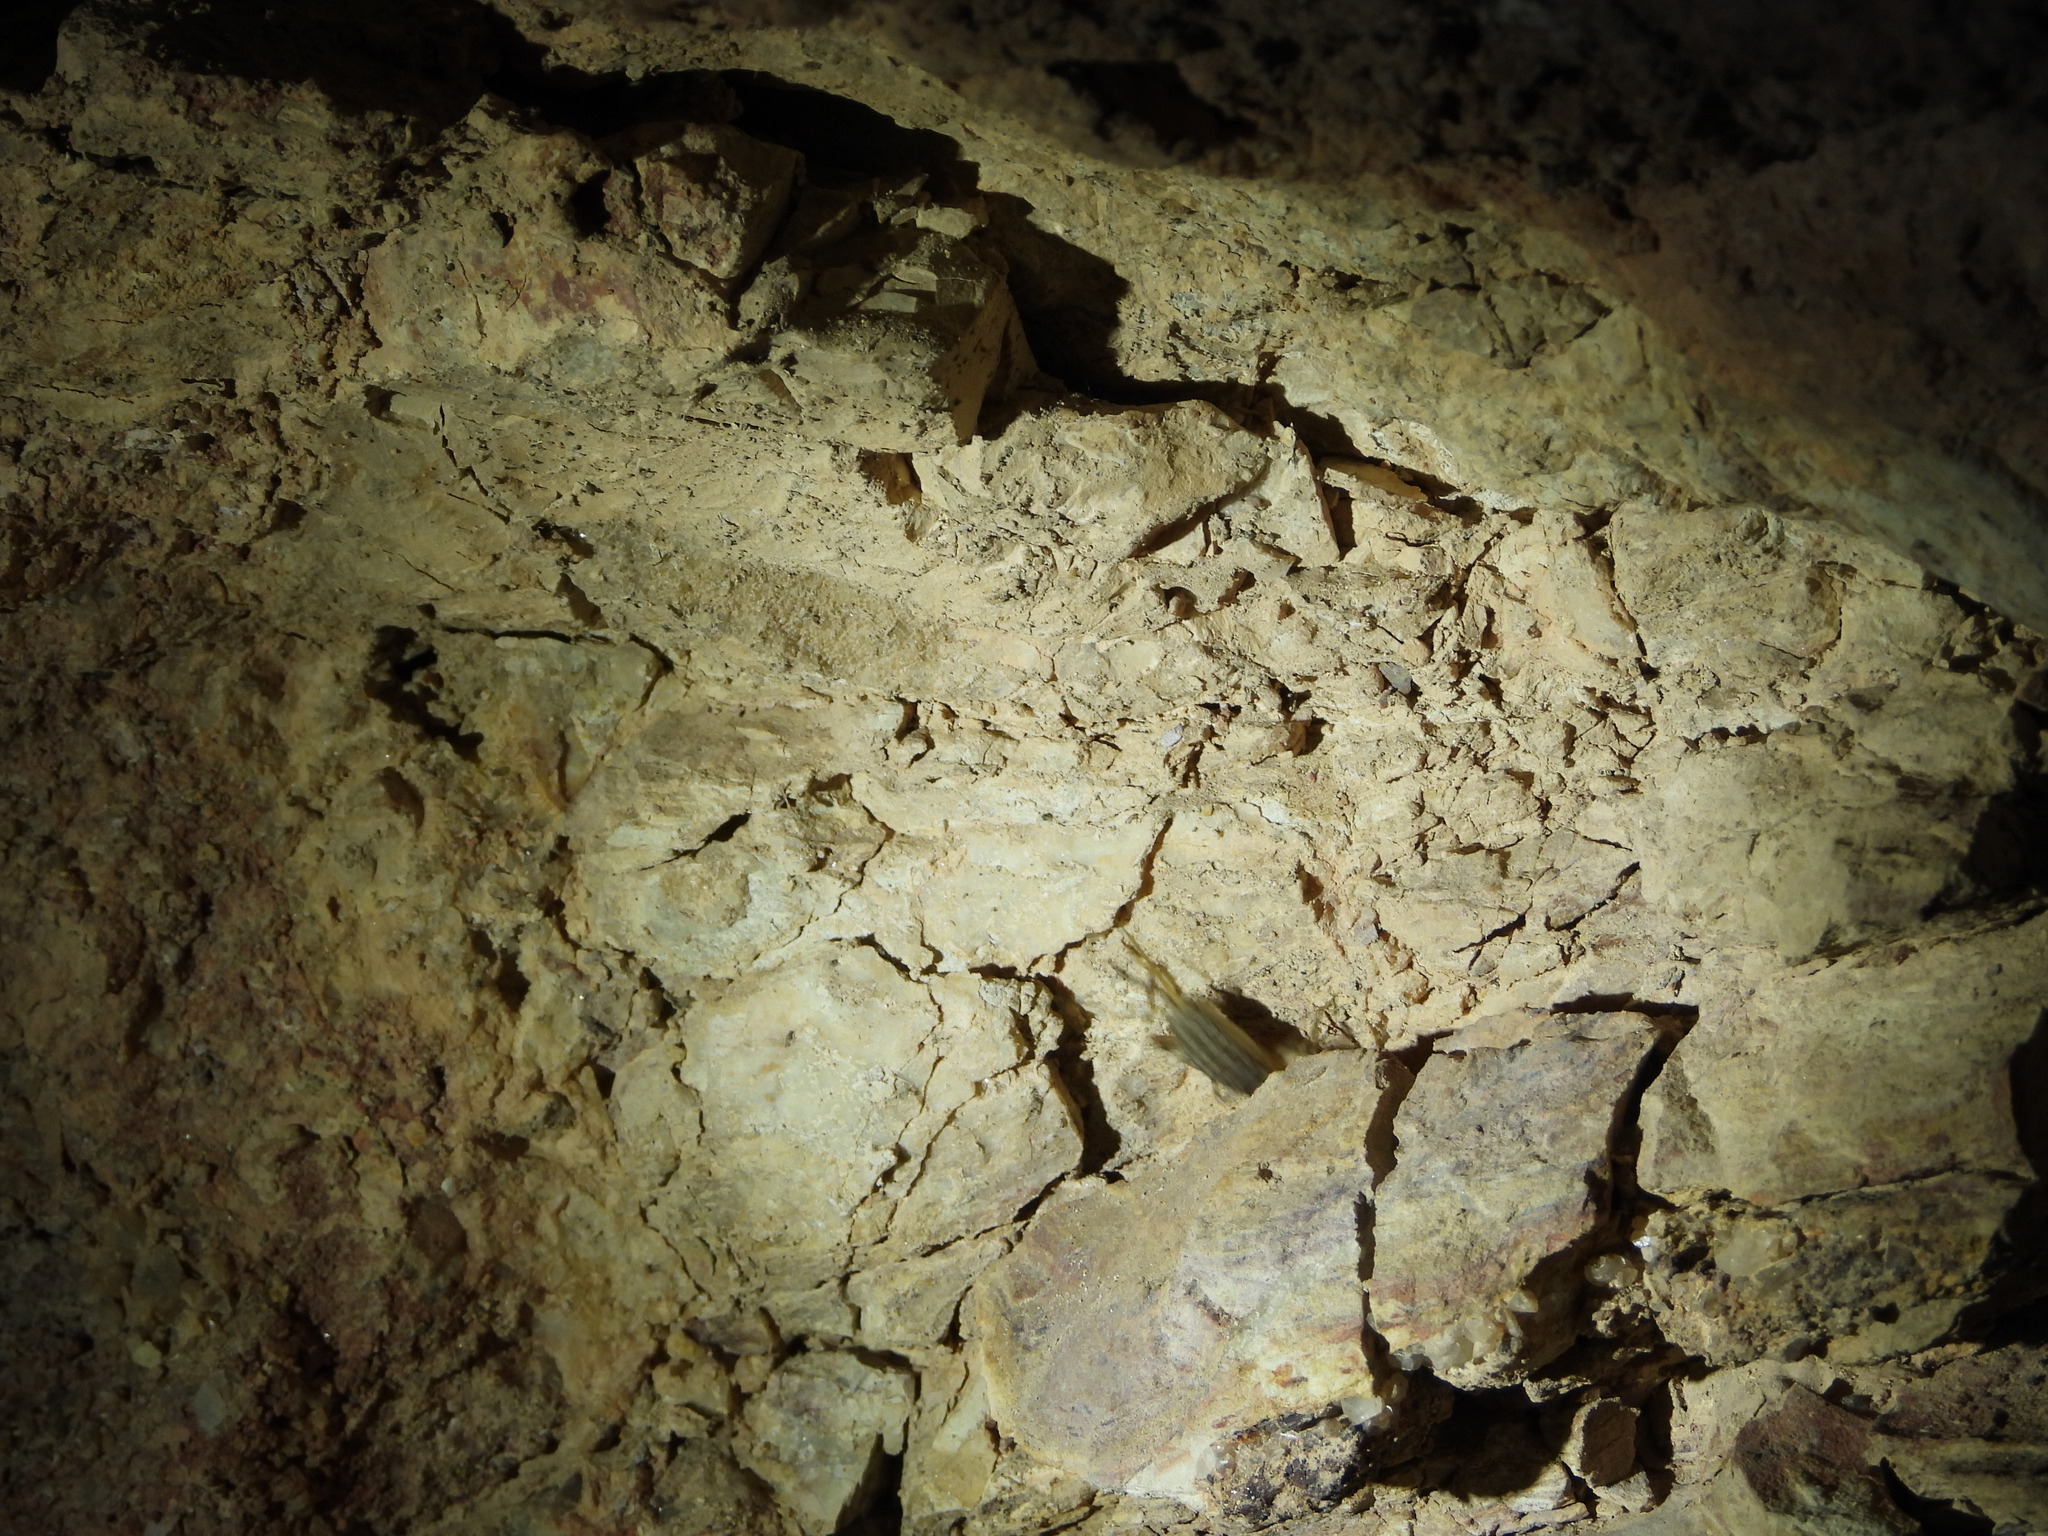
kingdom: Animalia
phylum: Arthropoda
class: Insecta
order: Orthoptera
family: Mogoplistidae
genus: Hoplosphyrum
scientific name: Hoplosphyrum boreale
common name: Long-winged scaly cricket
